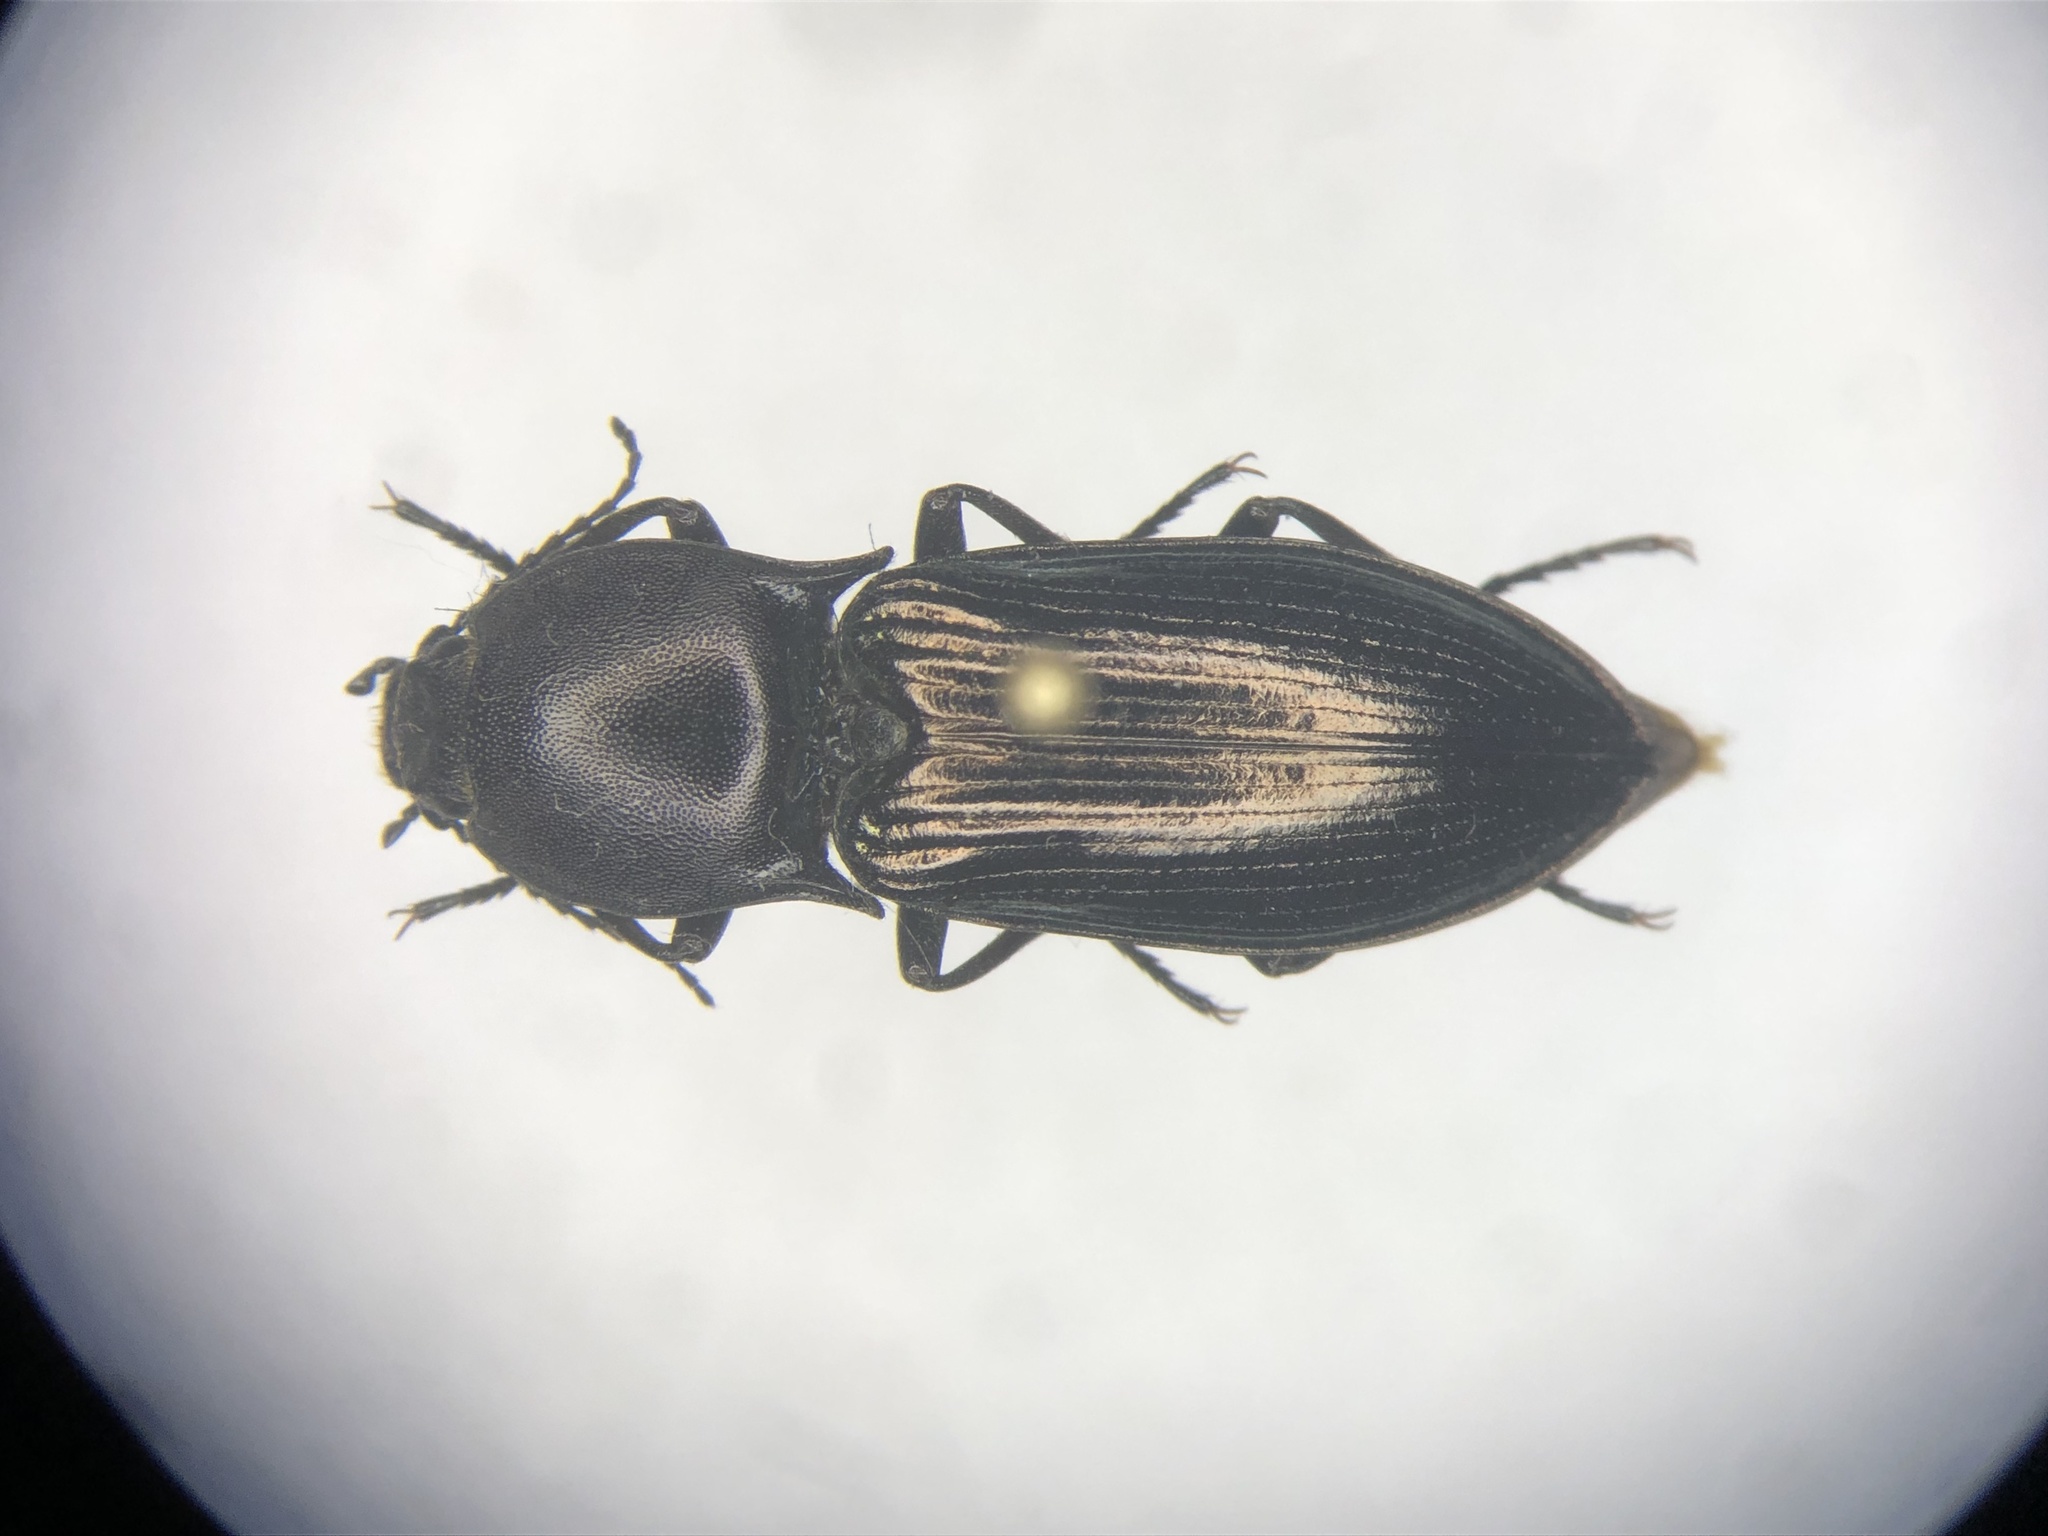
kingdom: Animalia
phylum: Arthropoda
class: Insecta
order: Coleoptera
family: Elateridae
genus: Selatosomus
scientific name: Selatosomus appropinquans
